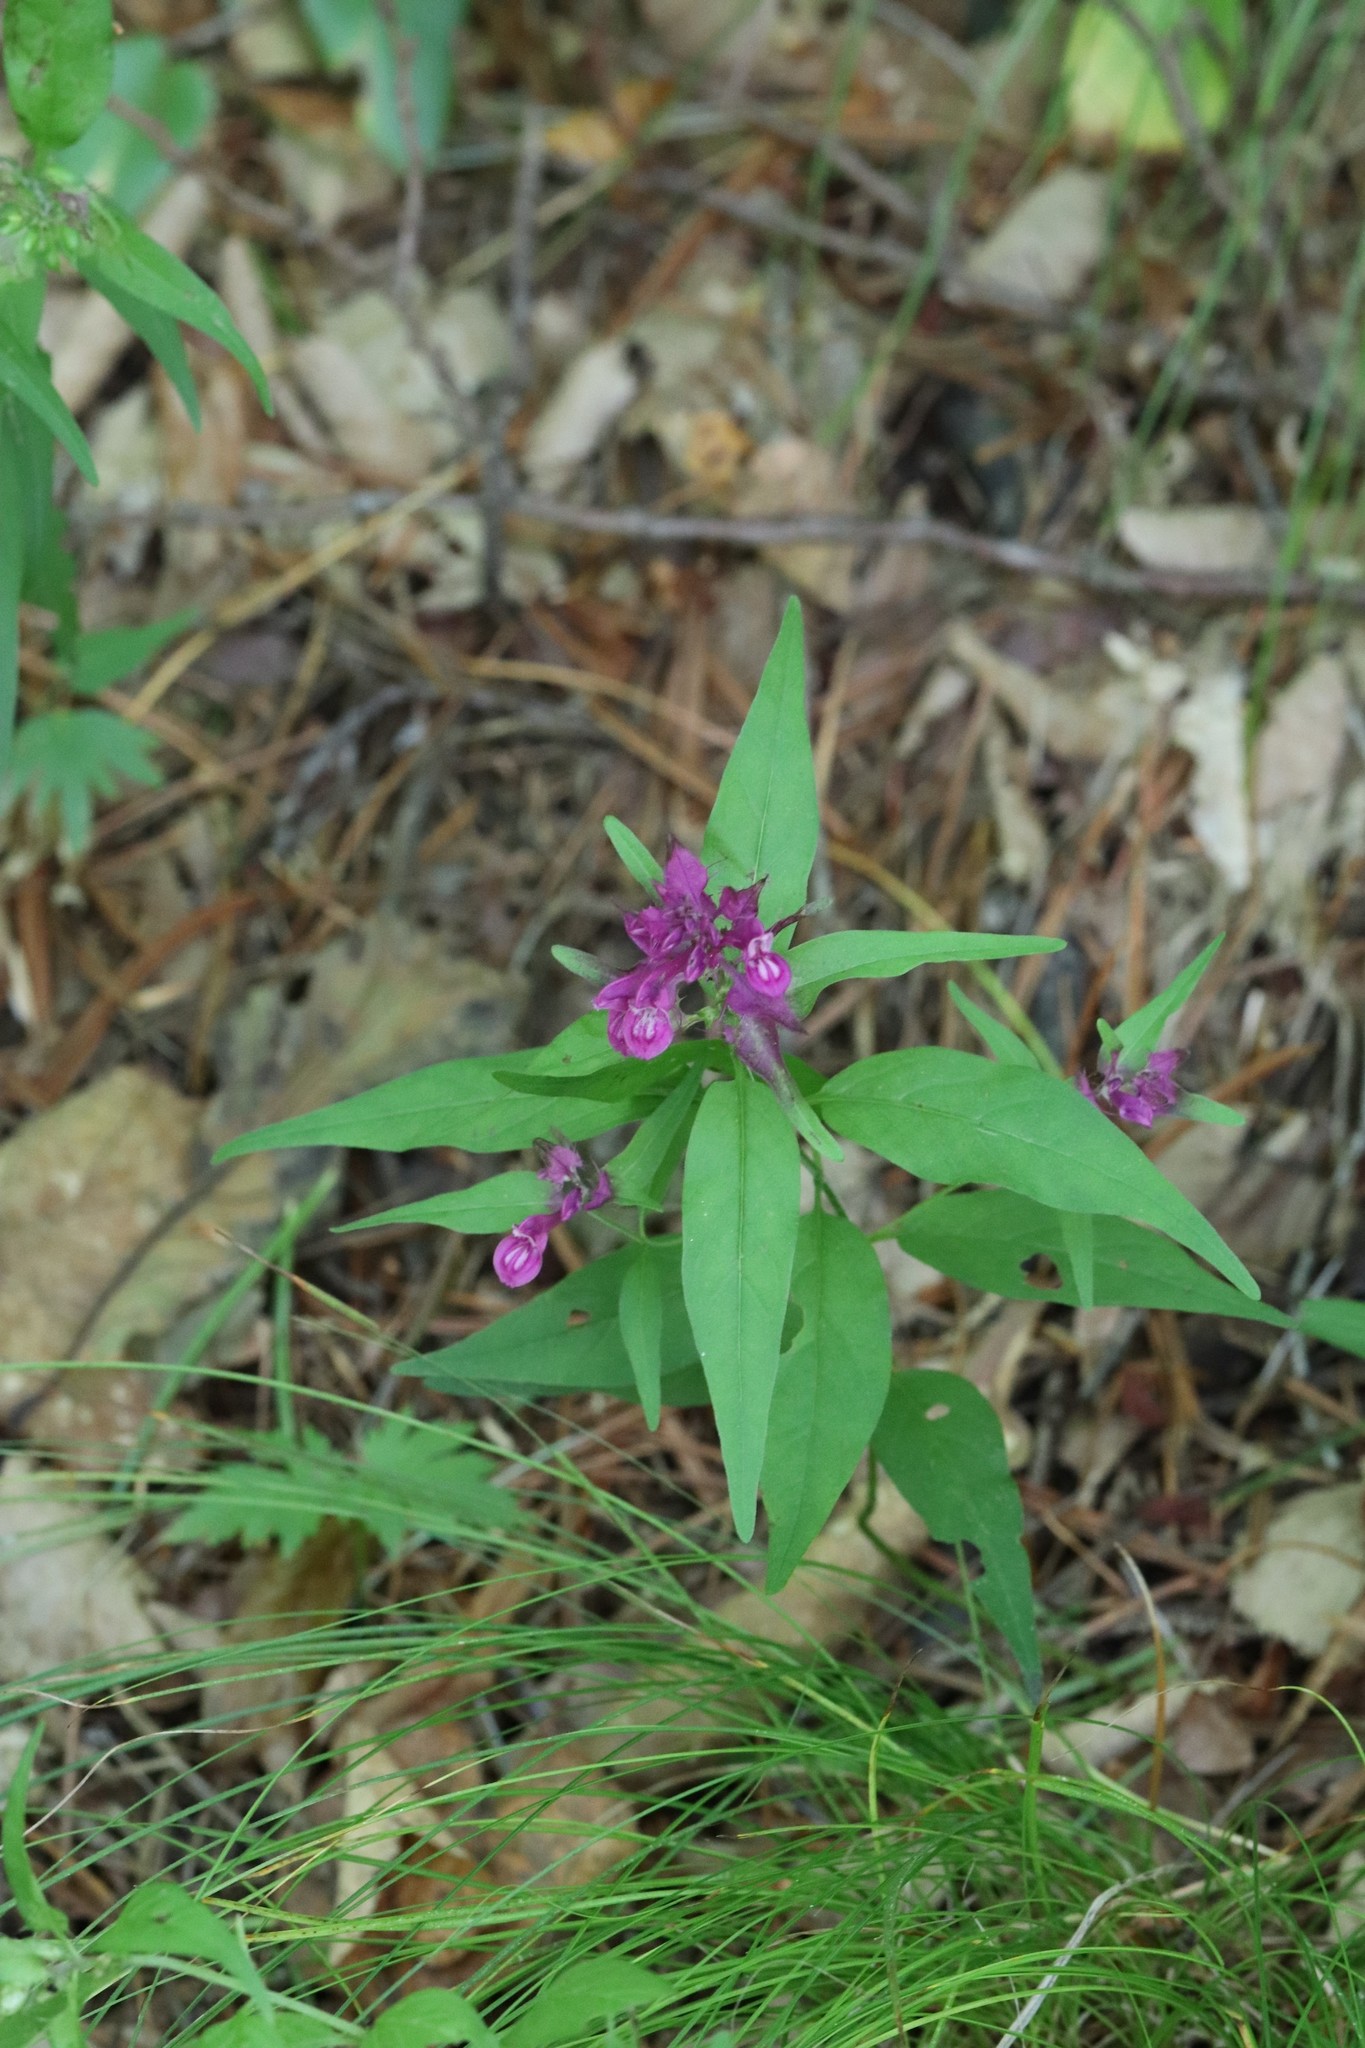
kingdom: Plantae
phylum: Tracheophyta
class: Magnoliopsida
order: Lamiales
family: Orobanchaceae
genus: Melampyrum
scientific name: Melampyrum setaceum
